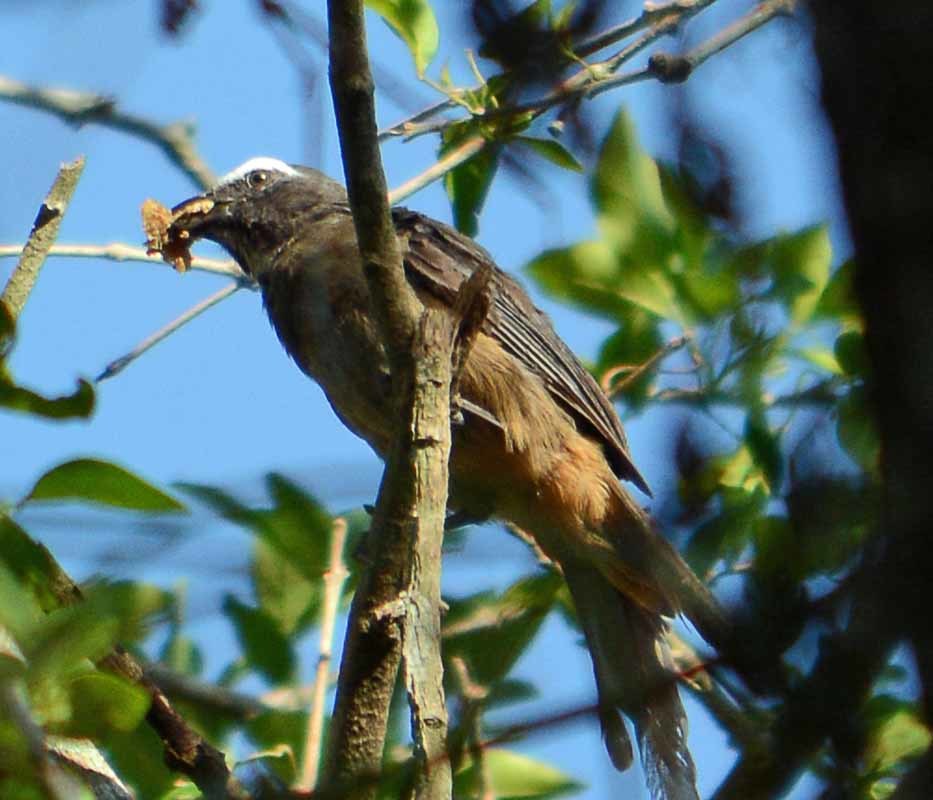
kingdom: Animalia
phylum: Chordata
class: Aves
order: Passeriformes
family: Thraupidae
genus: Saltator
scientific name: Saltator grandis
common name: Cinnamon-bellied saltator
